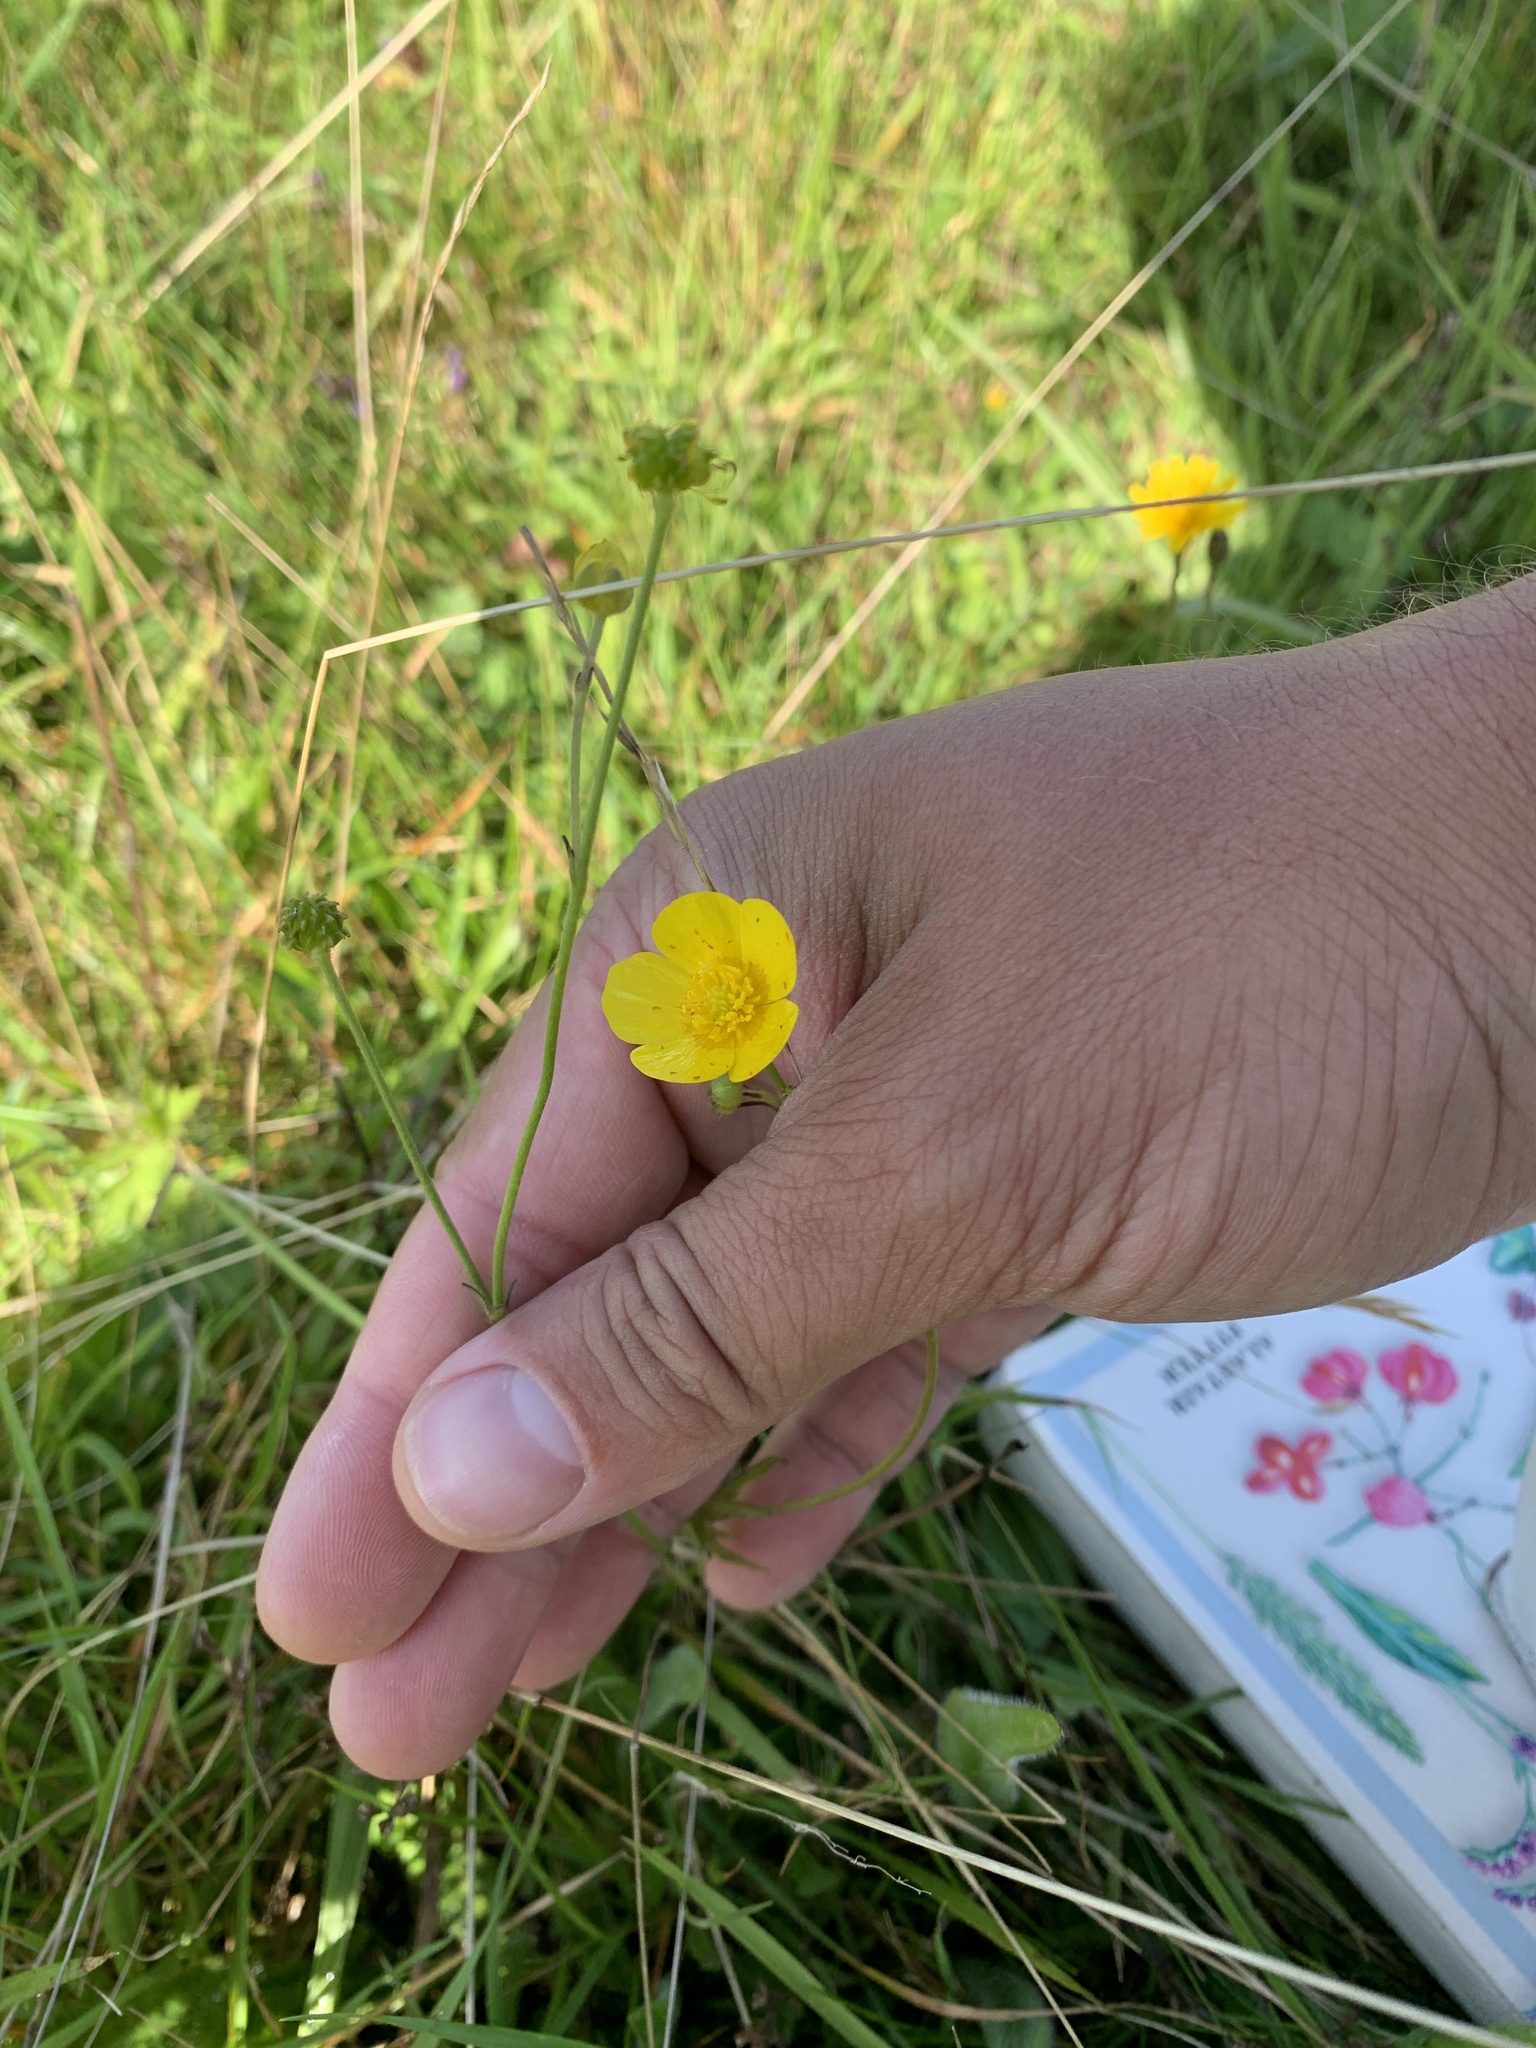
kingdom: Plantae
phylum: Tracheophyta
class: Magnoliopsida
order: Ranunculales
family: Ranunculaceae
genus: Ranunculus
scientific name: Ranunculus acris
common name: Meadow buttercup
